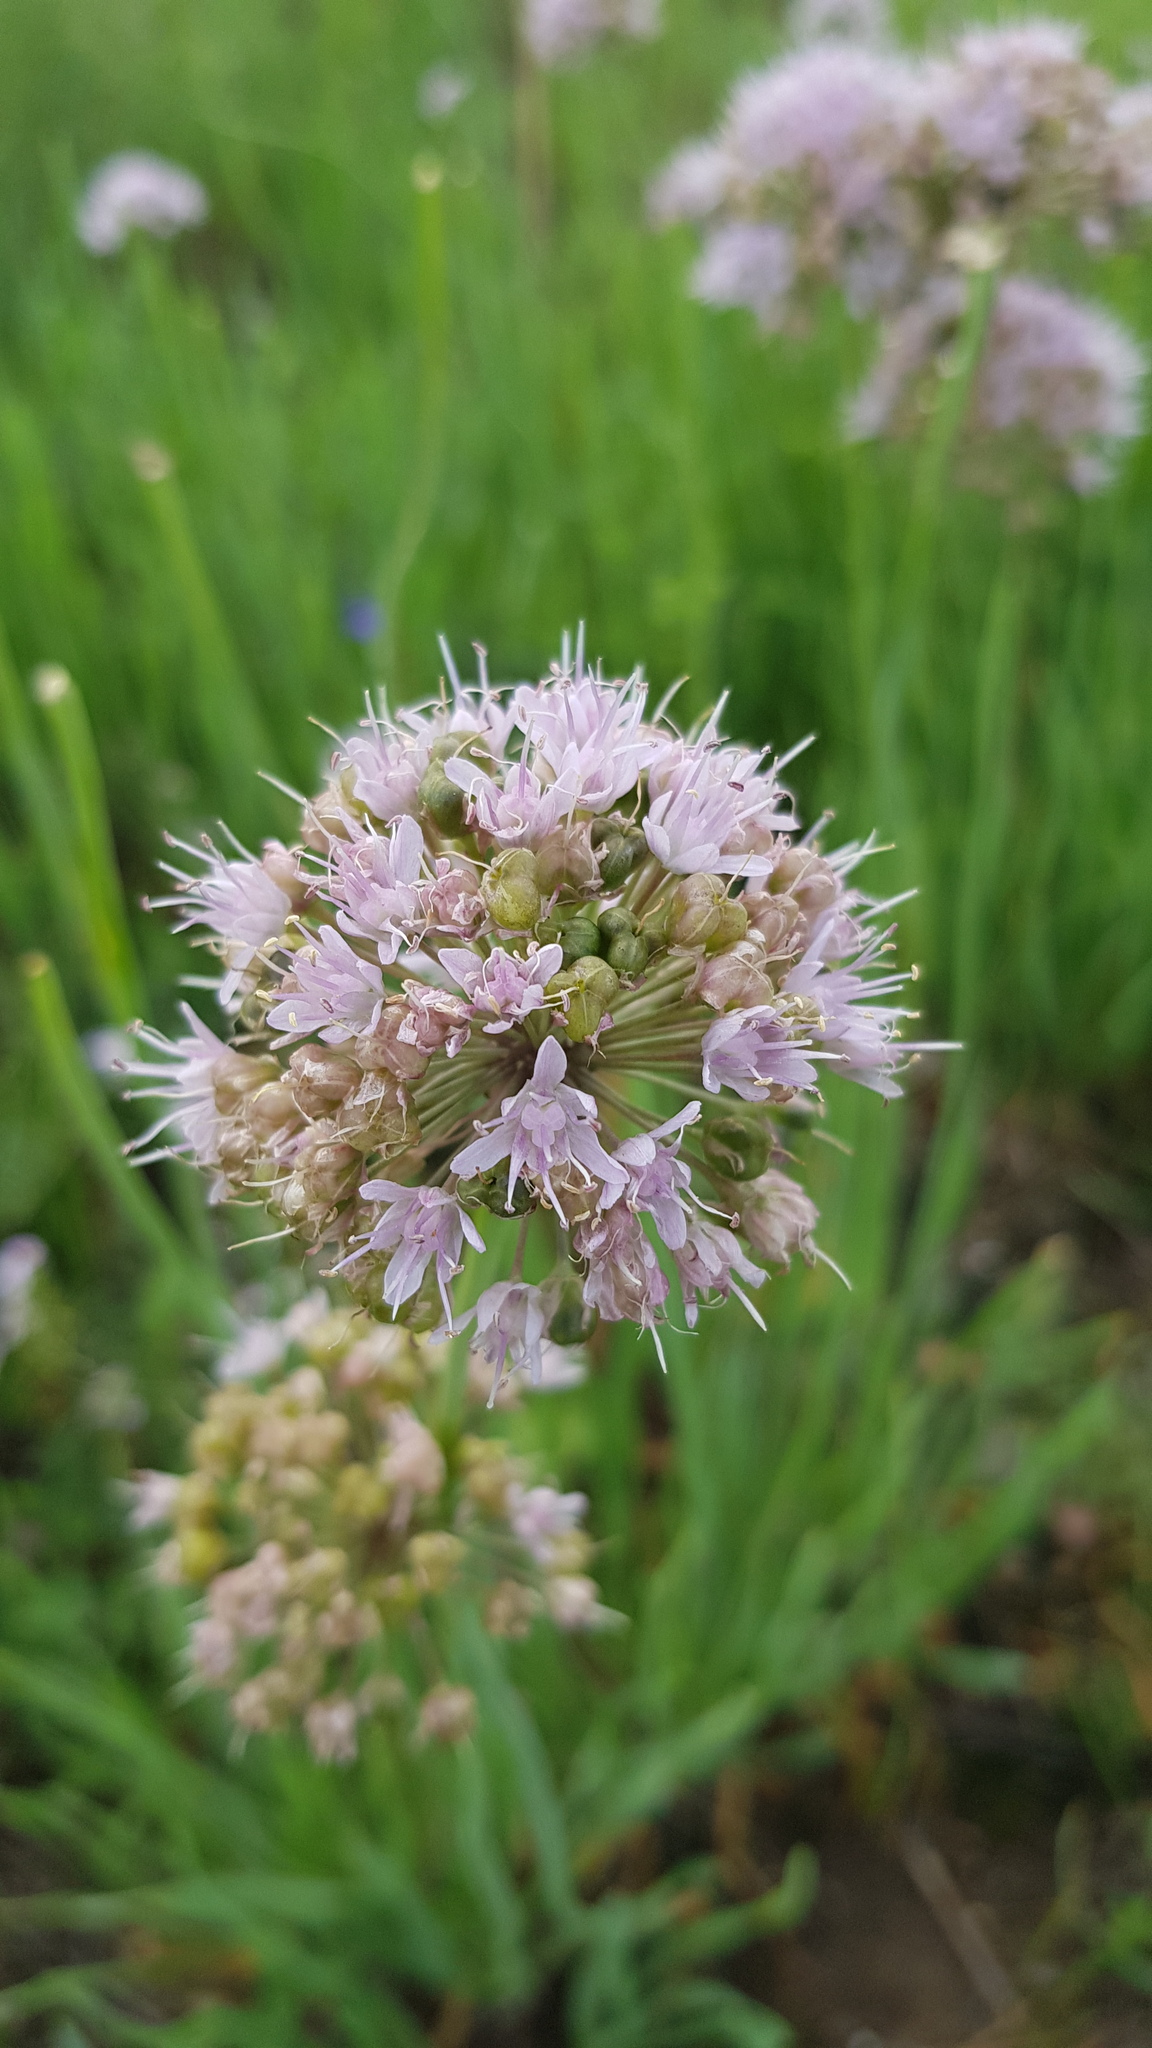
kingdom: Plantae
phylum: Tracheophyta
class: Liliopsida
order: Asparagales
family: Amaryllidaceae
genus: Allium
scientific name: Allium splendens
